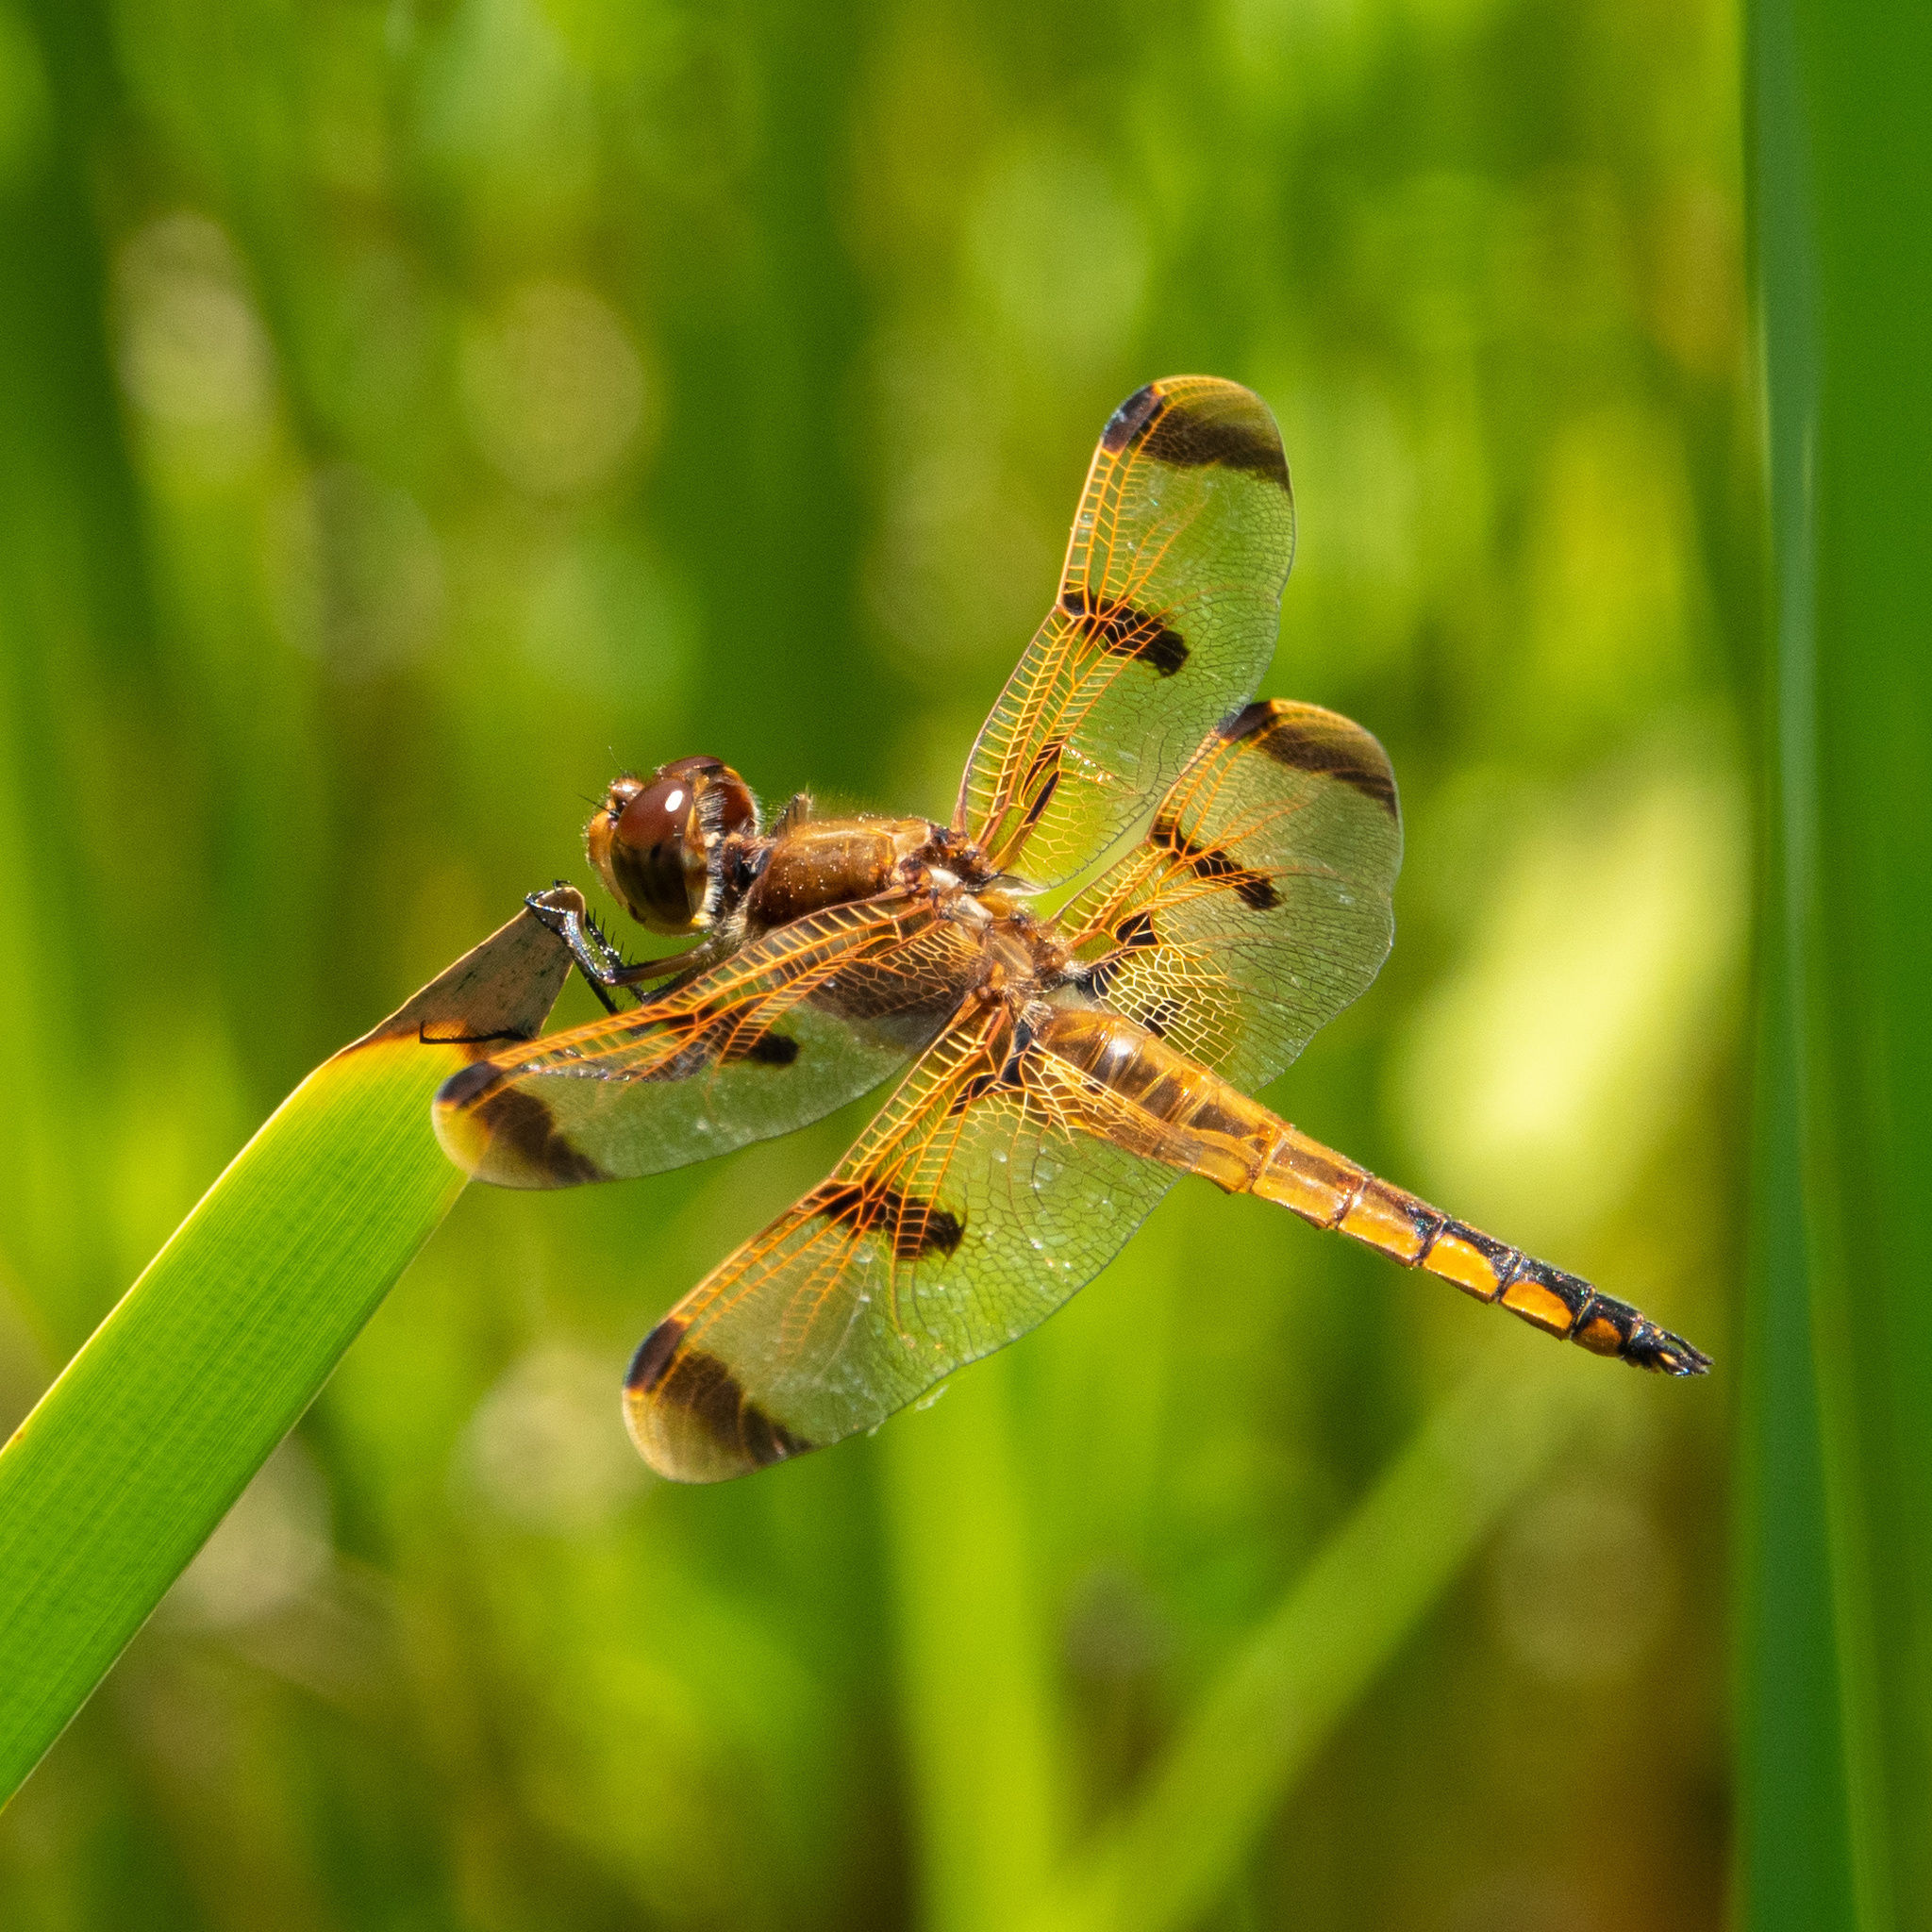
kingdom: Animalia
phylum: Arthropoda
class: Insecta
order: Odonata
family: Libellulidae
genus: Libellula
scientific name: Libellula semifasciata
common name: Painted skimmer
